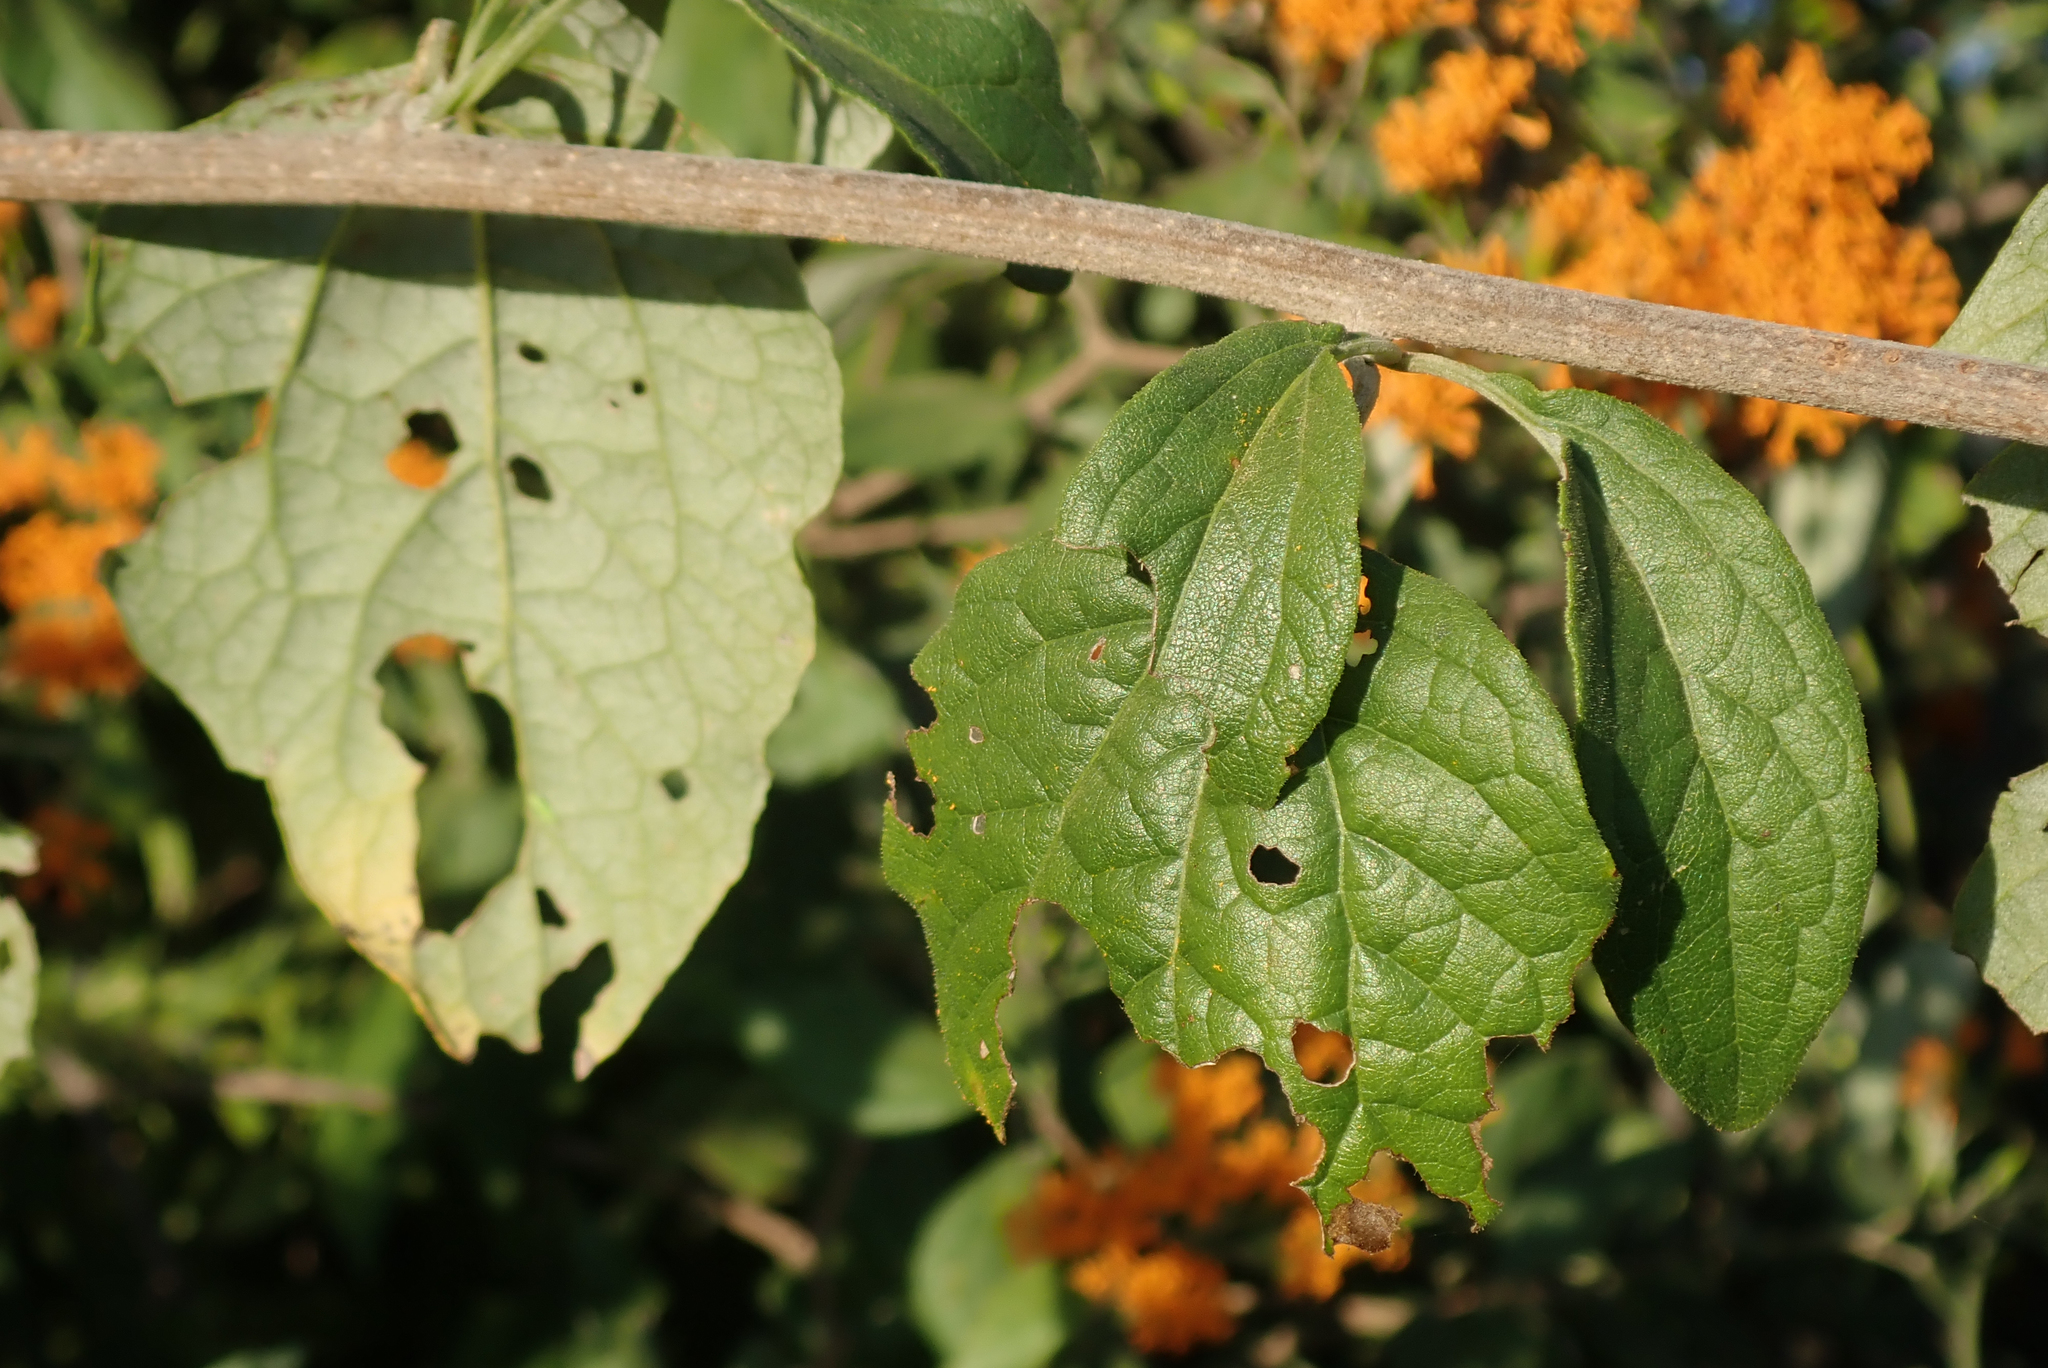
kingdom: Plantae
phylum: Tracheophyta
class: Magnoliopsida
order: Asterales
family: Asteraceae
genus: Distephanus
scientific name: Distephanus divaricatus
